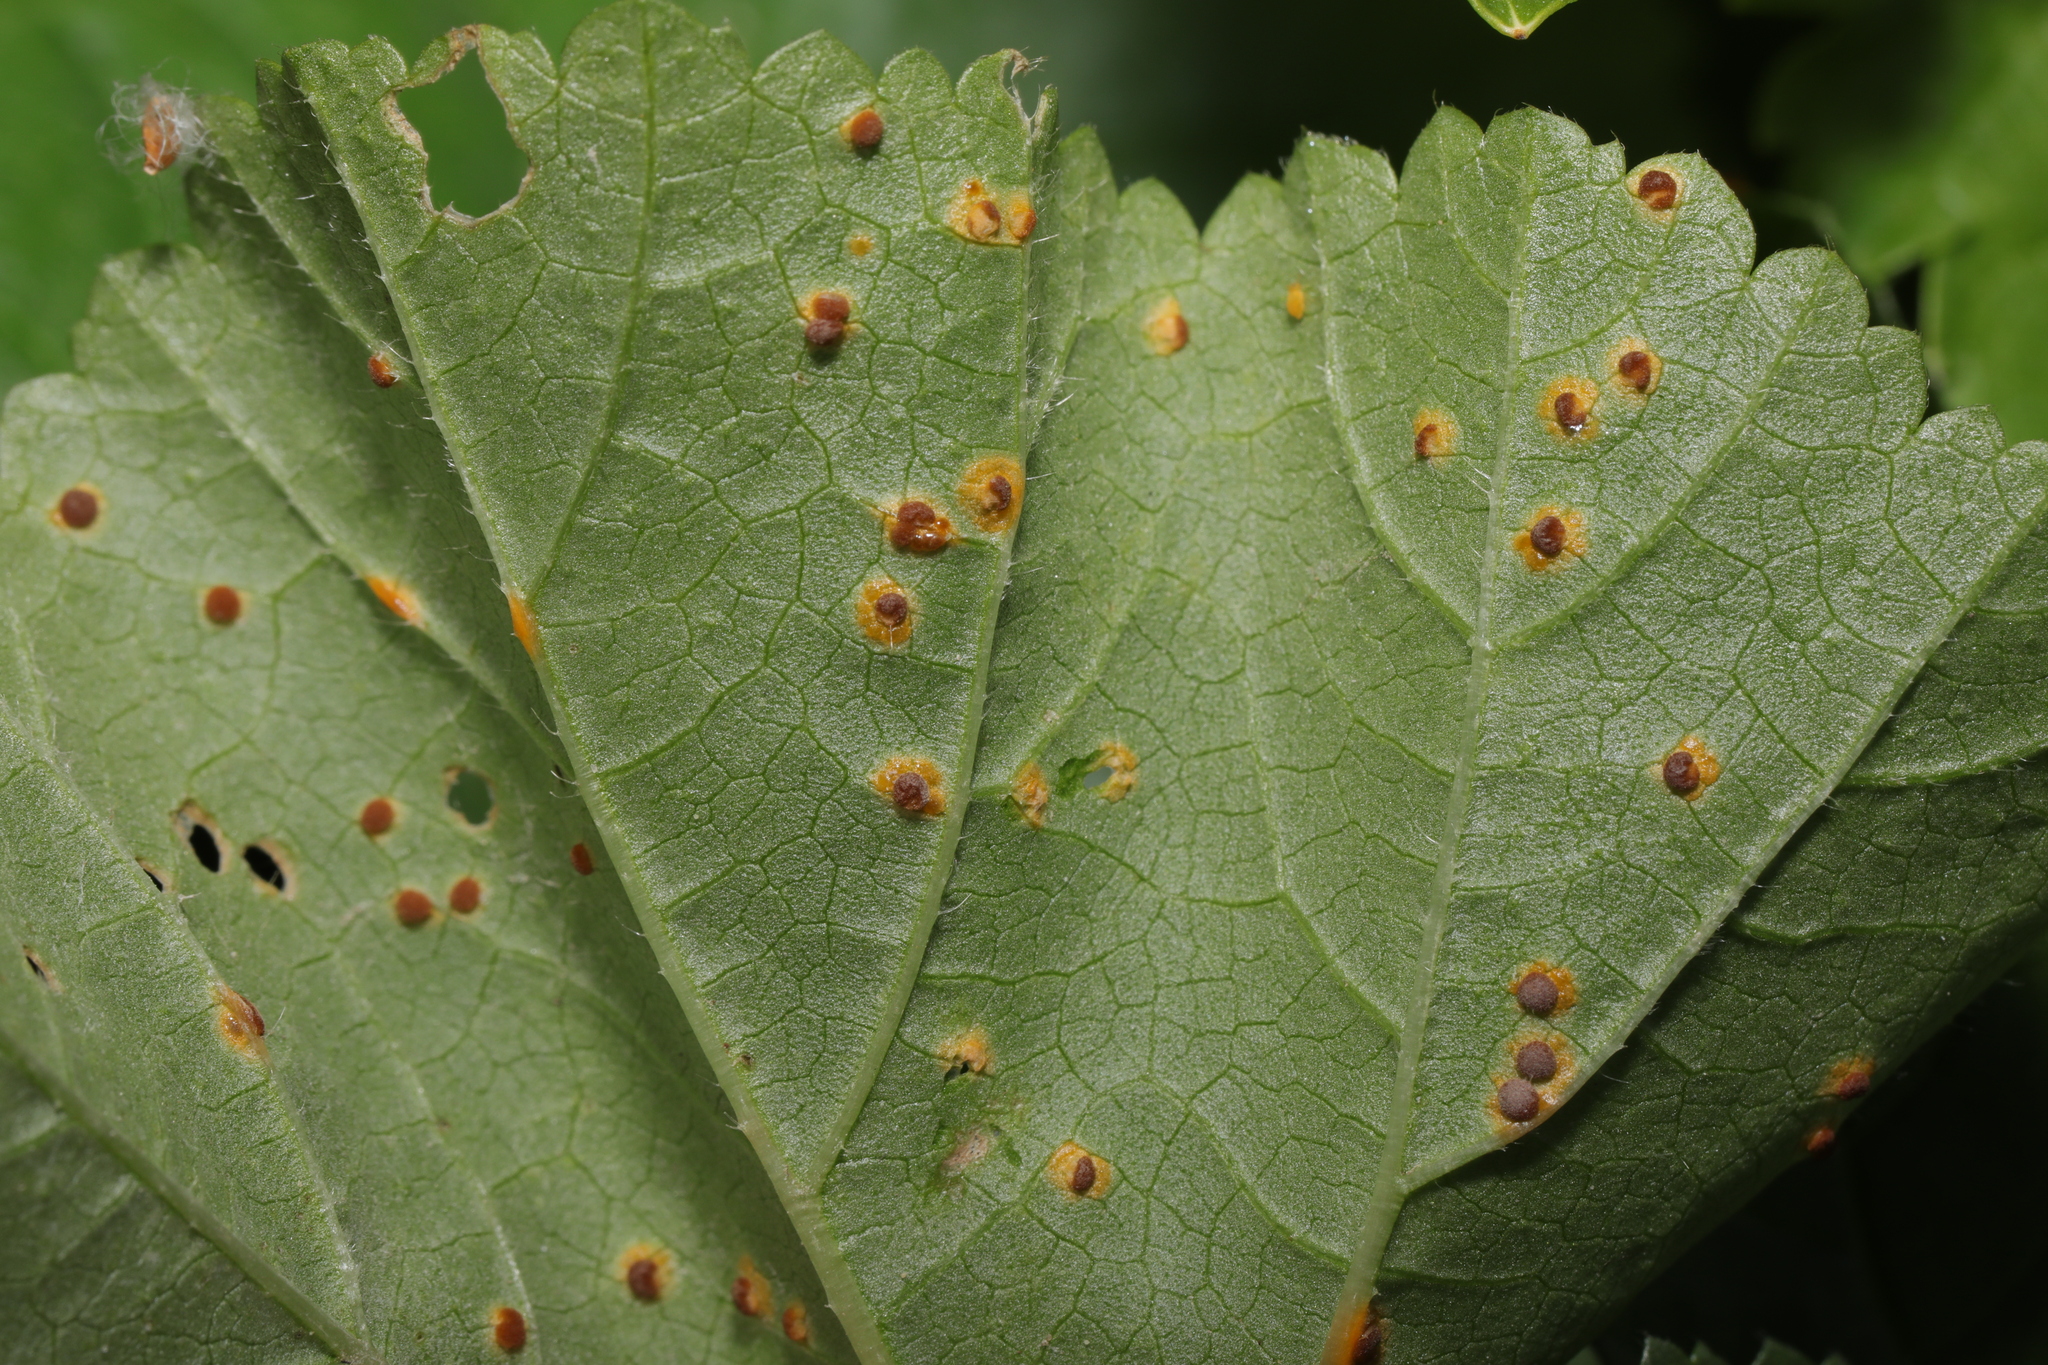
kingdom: Fungi
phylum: Basidiomycota
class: Pucciniomycetes
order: Pucciniales
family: Pucciniaceae
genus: Puccinia
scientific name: Puccinia malvacearum
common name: Hollyhock rust
